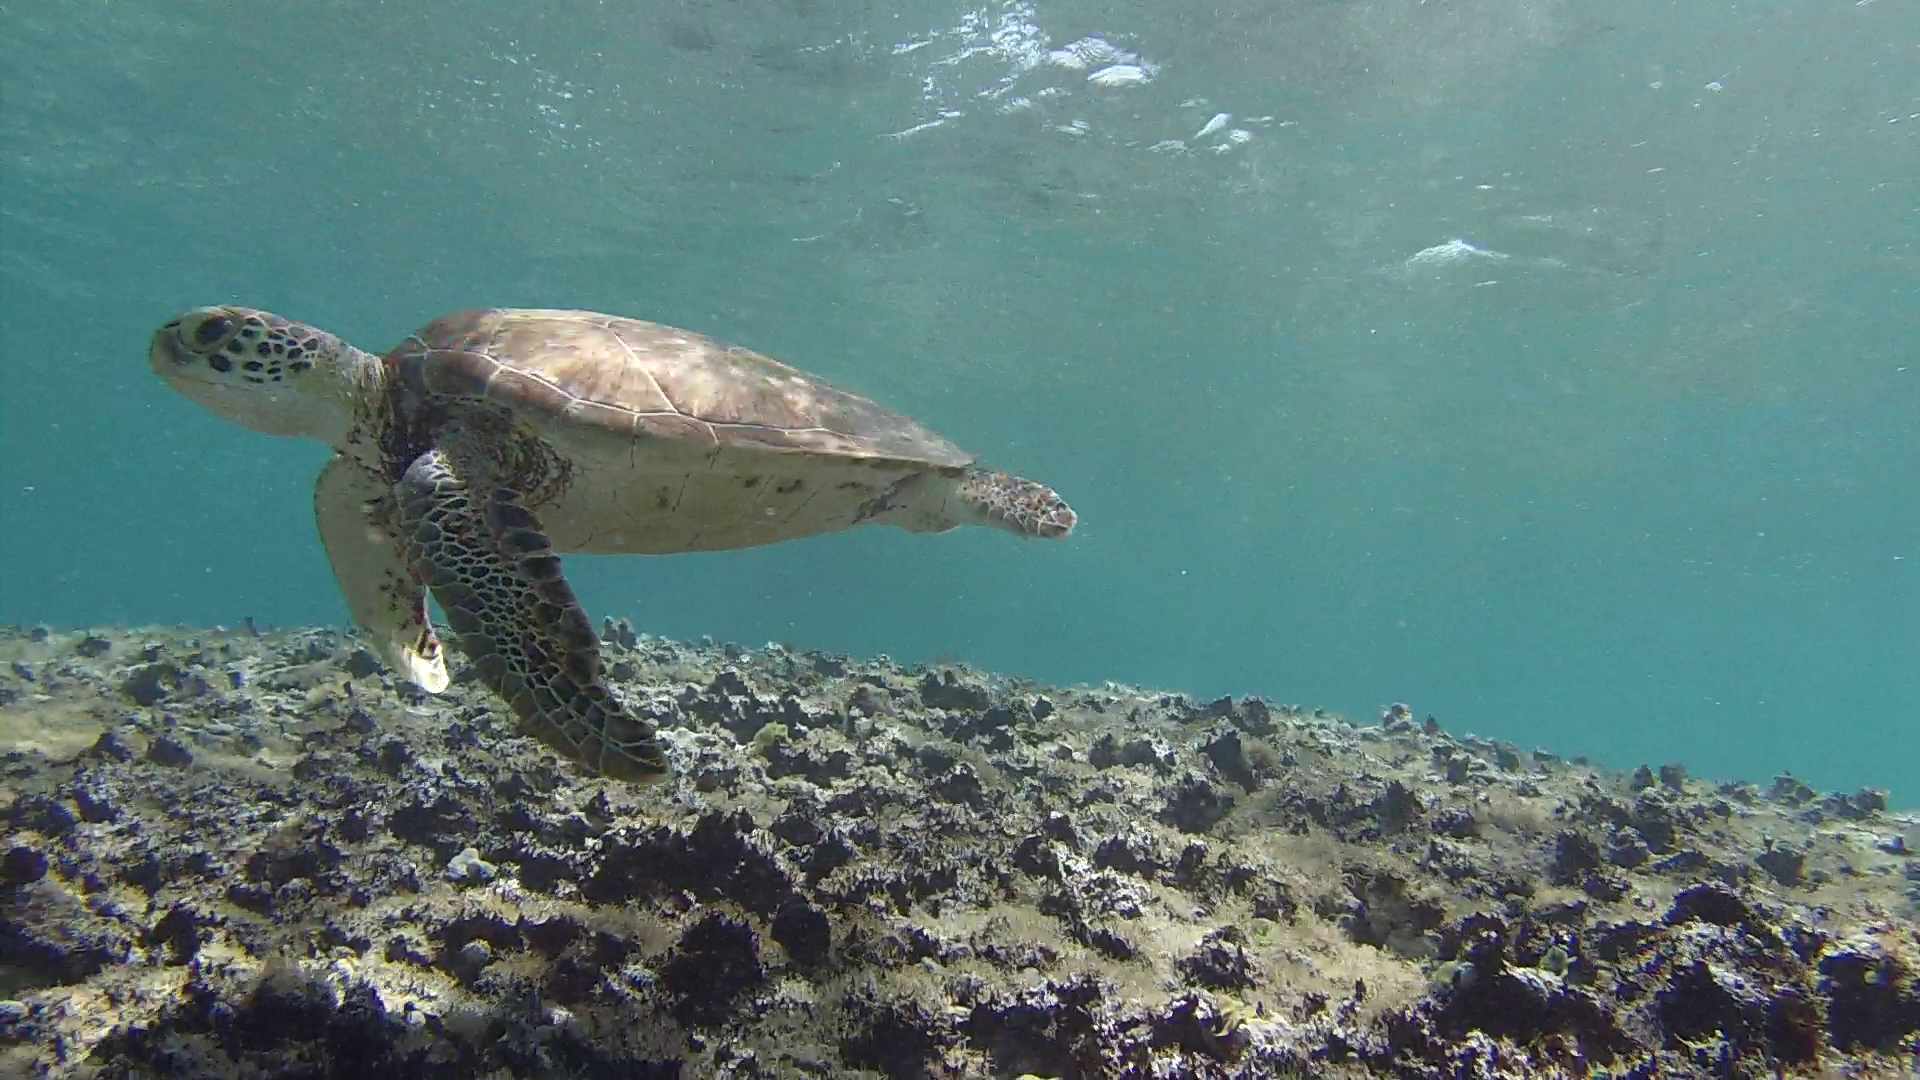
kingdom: Animalia
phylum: Chordata
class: Testudines
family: Cheloniidae
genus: Chelonia
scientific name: Chelonia mydas
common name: Green turtle
